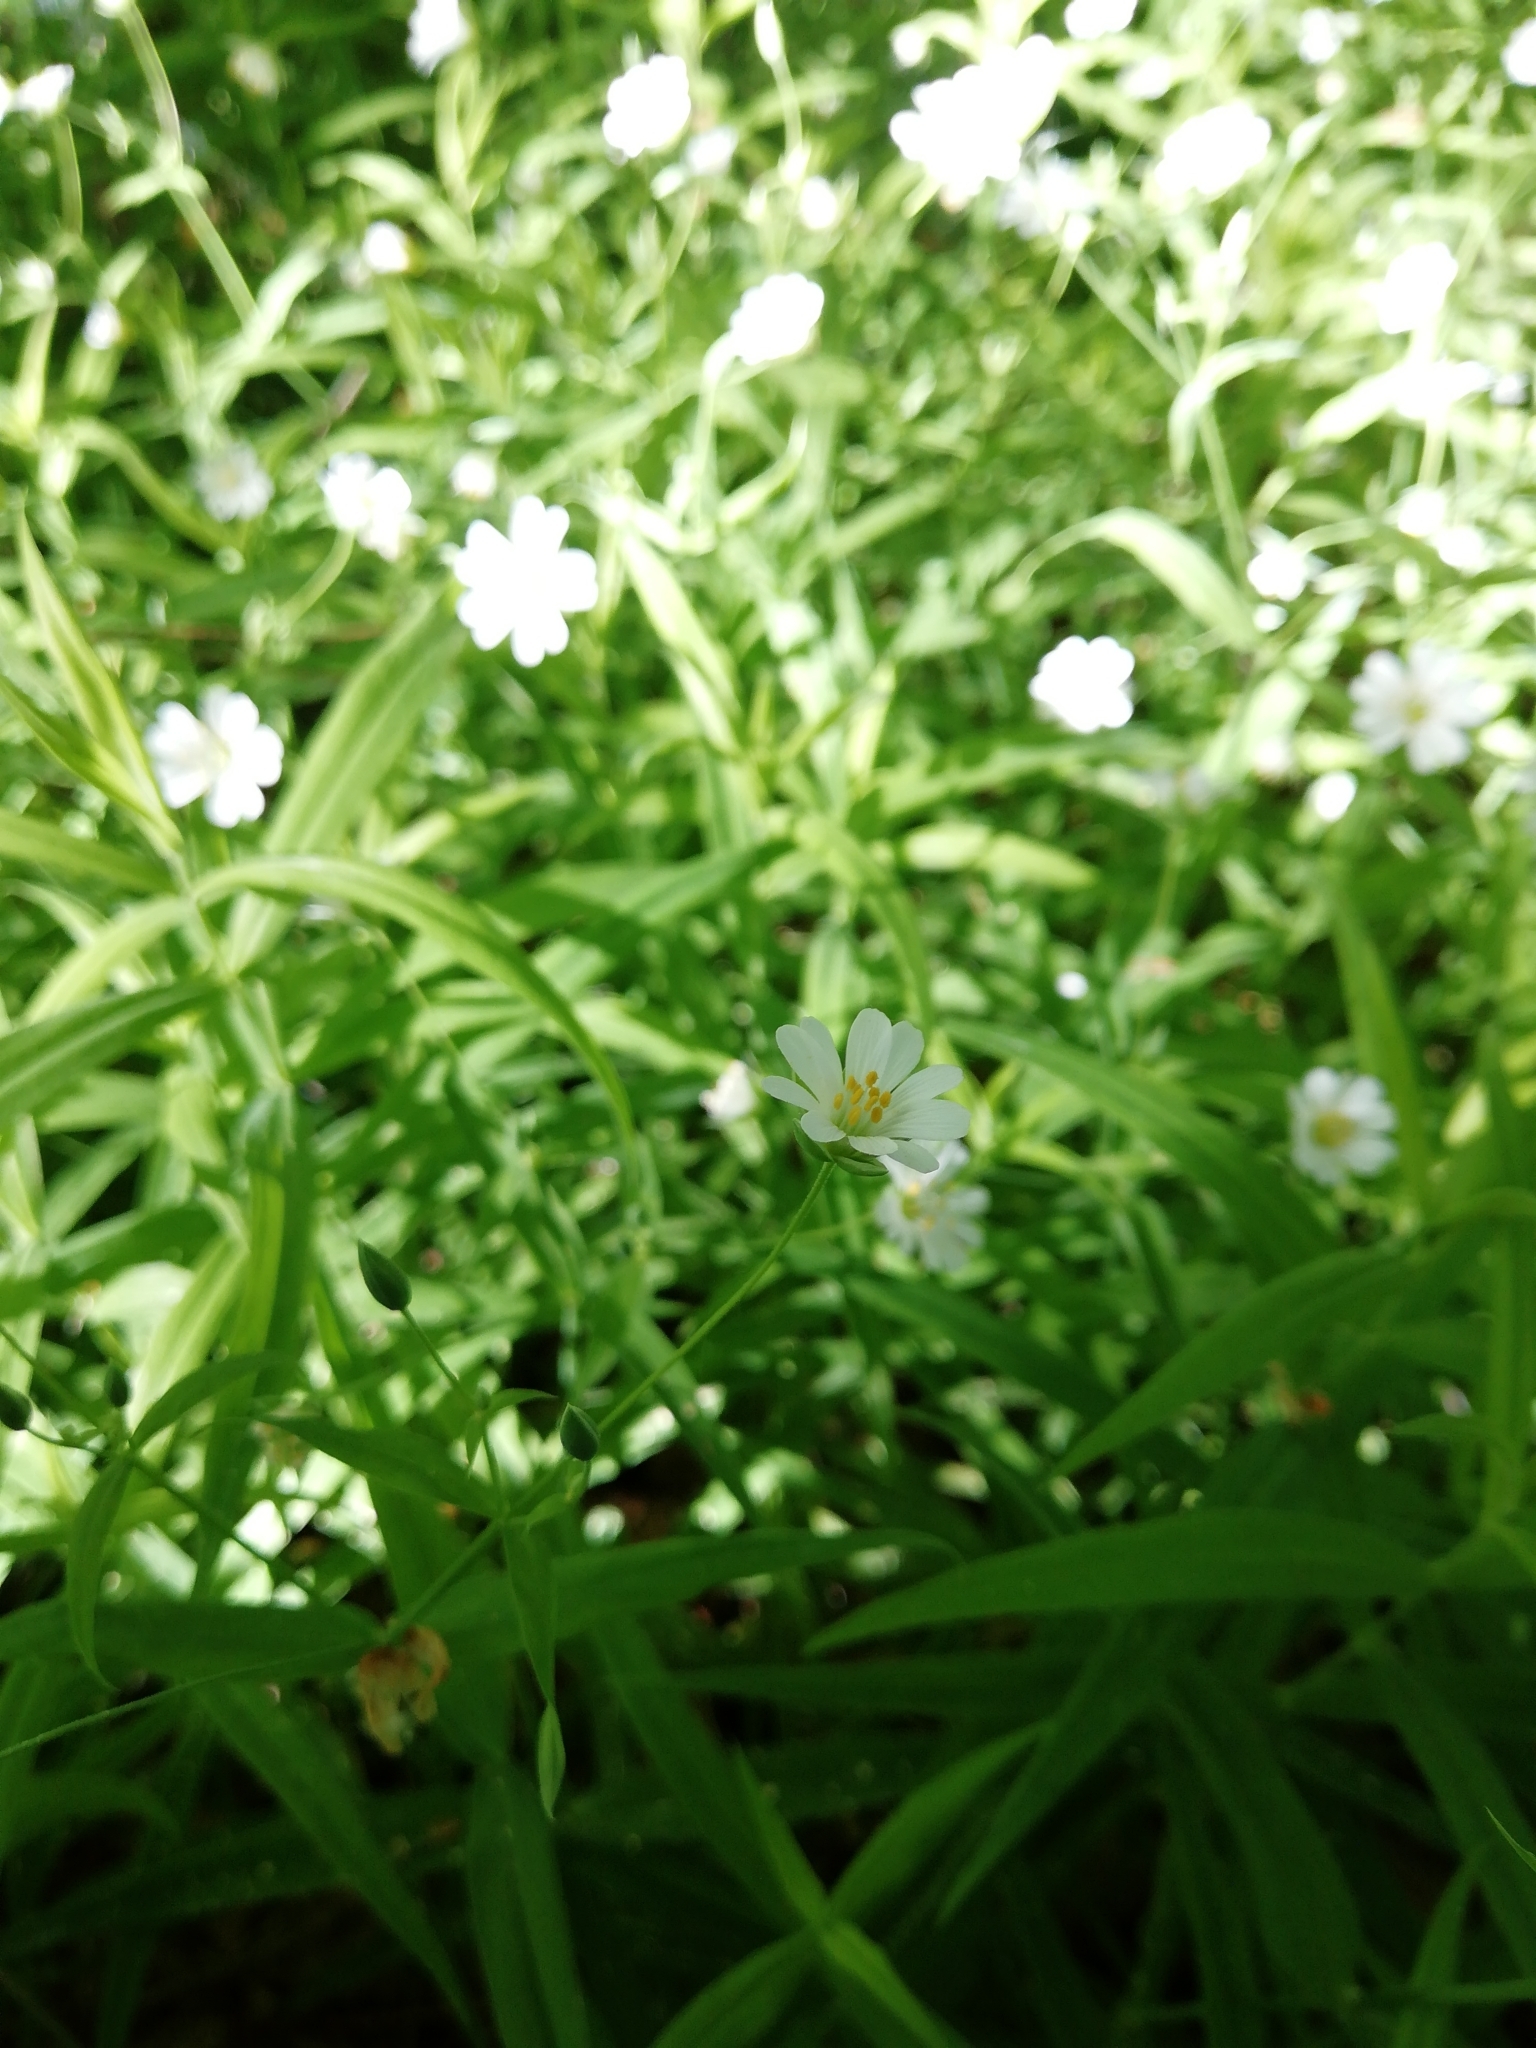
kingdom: Plantae
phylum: Tracheophyta
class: Magnoliopsida
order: Caryophyllales
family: Caryophyllaceae
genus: Rabelera
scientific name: Rabelera holostea
